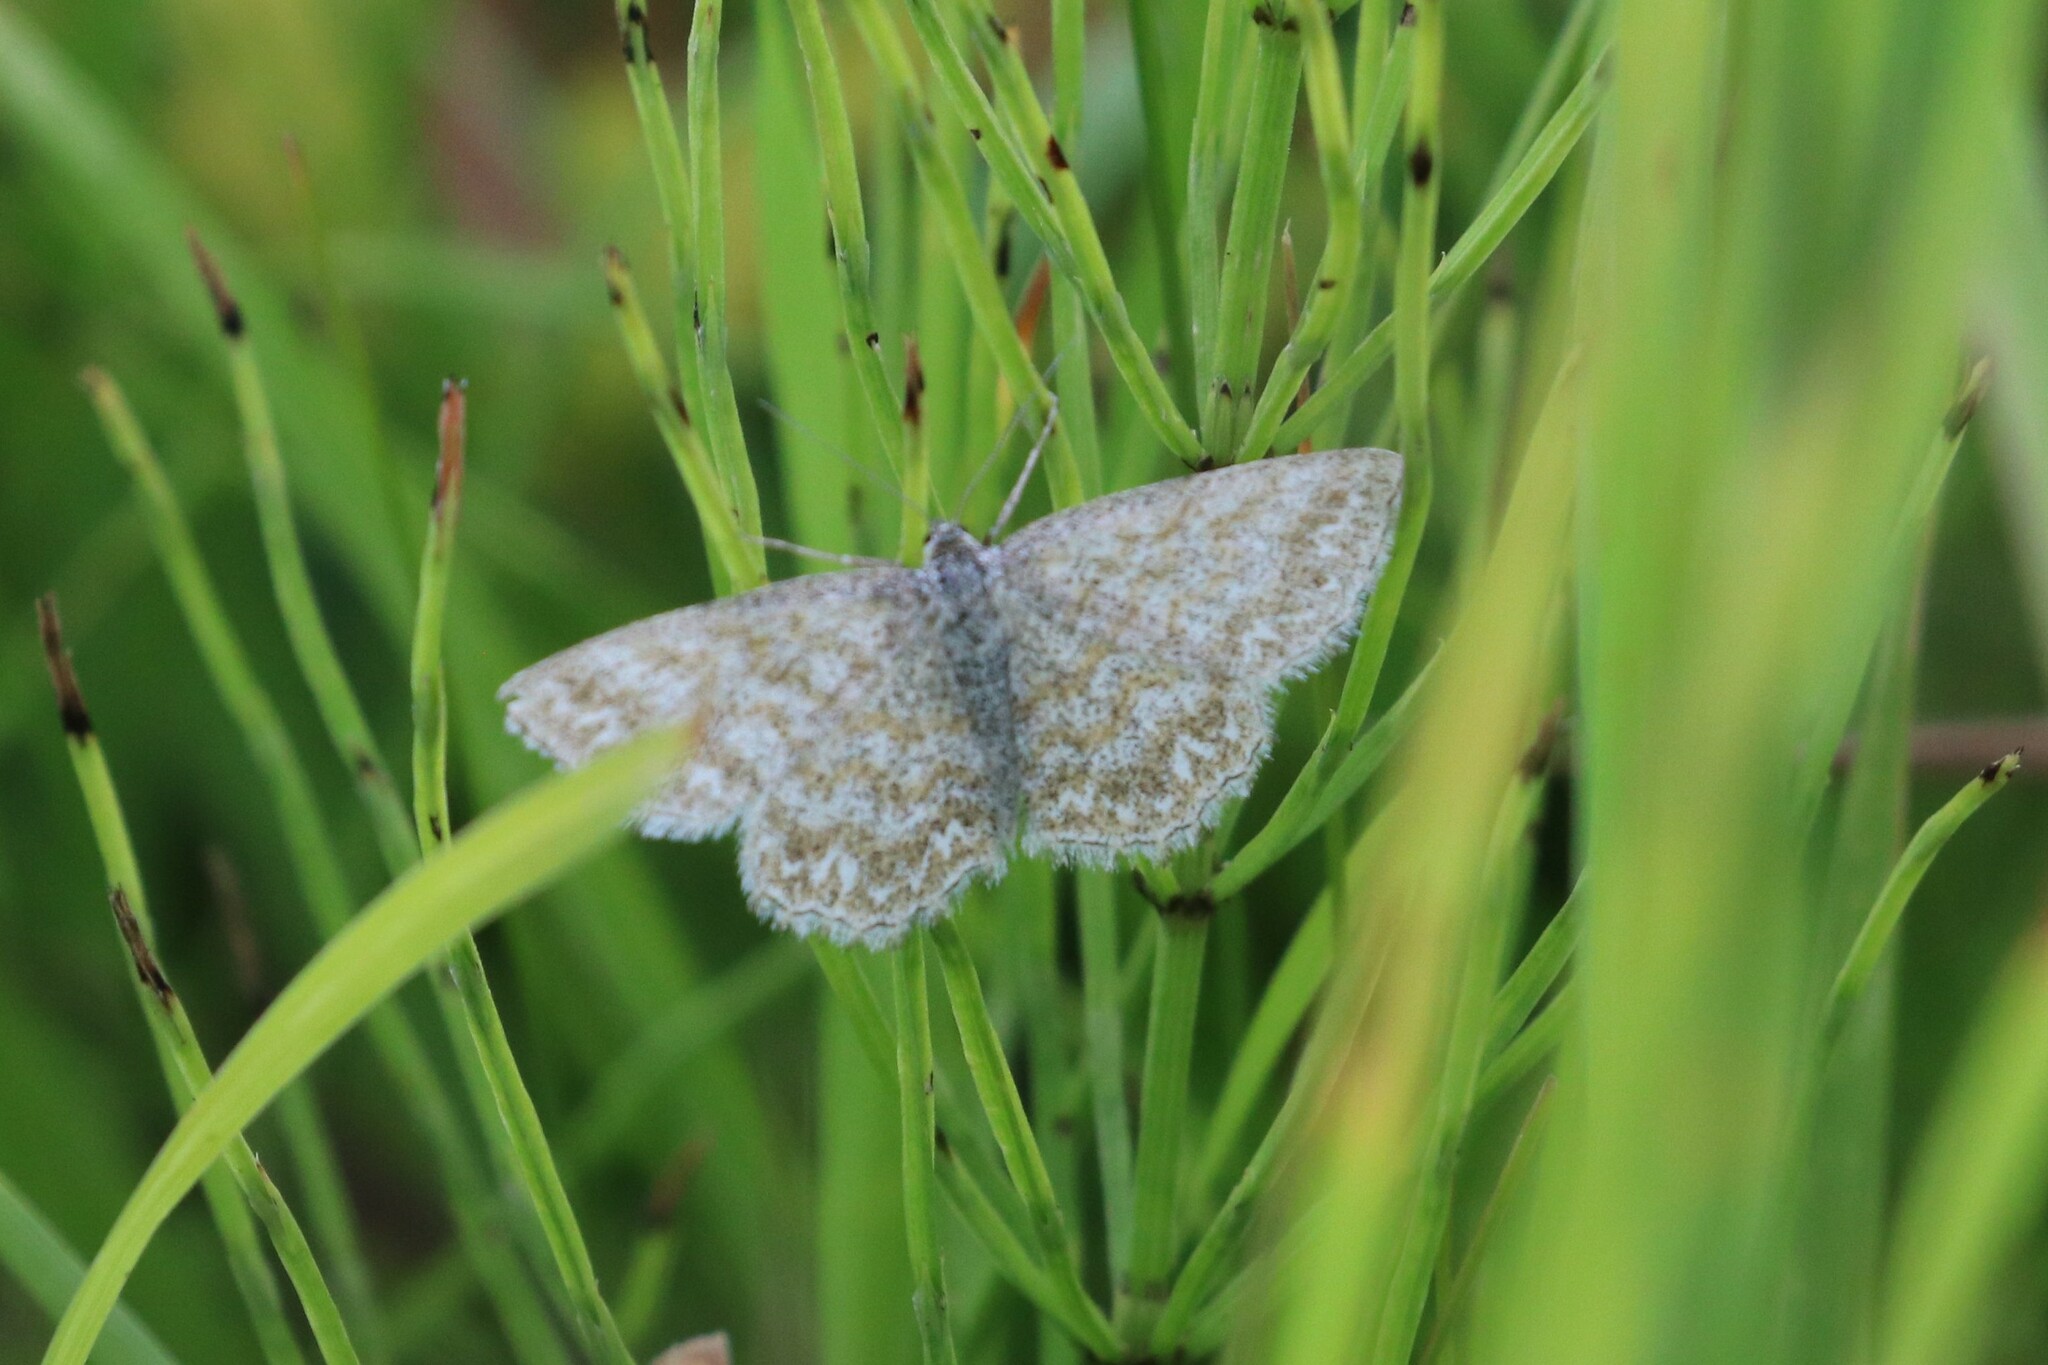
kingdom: Animalia
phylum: Arthropoda
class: Insecta
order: Lepidoptera
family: Geometridae
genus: Scopula
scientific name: Scopula immorata
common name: Lewes wave
